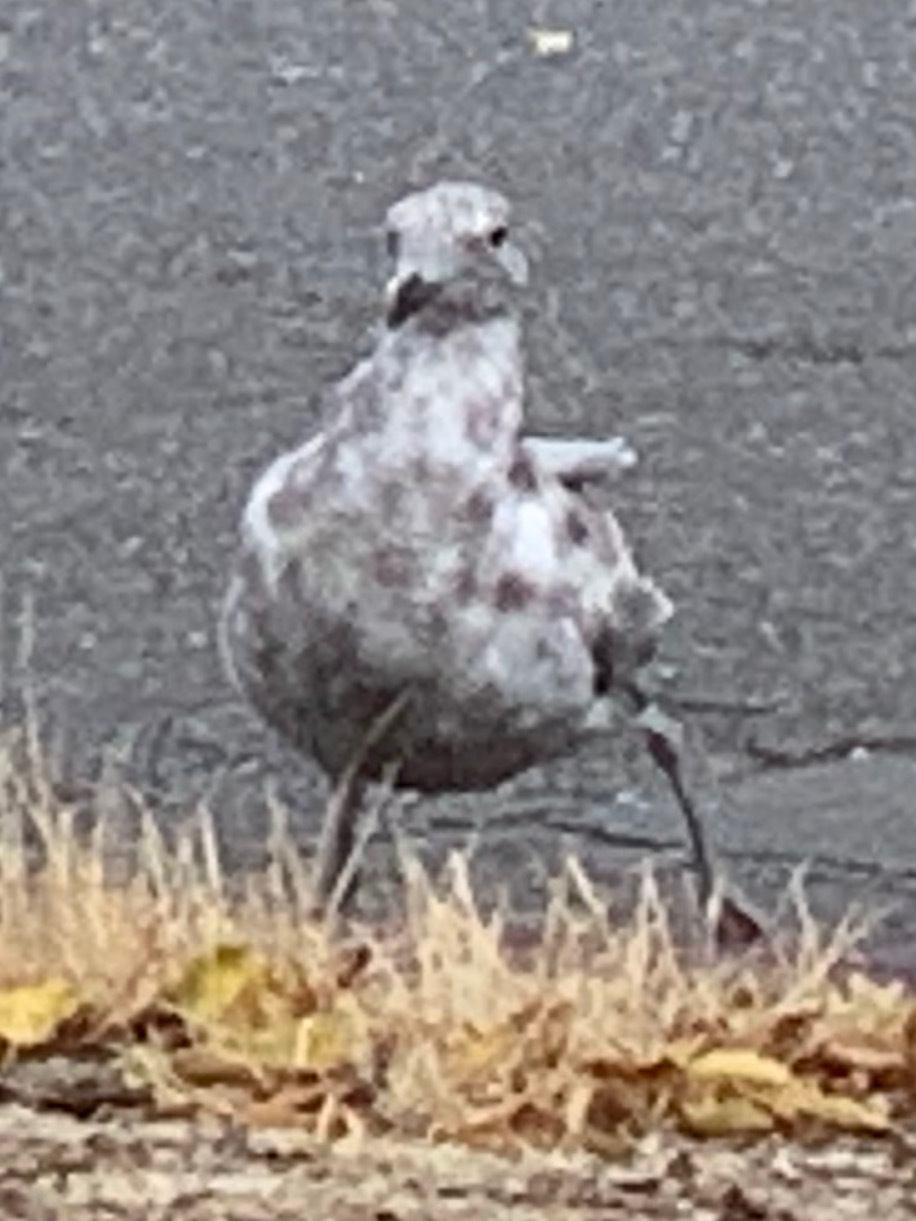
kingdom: Animalia
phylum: Chordata
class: Aves
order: Charadriiformes
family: Laridae
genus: Larus
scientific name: Larus
